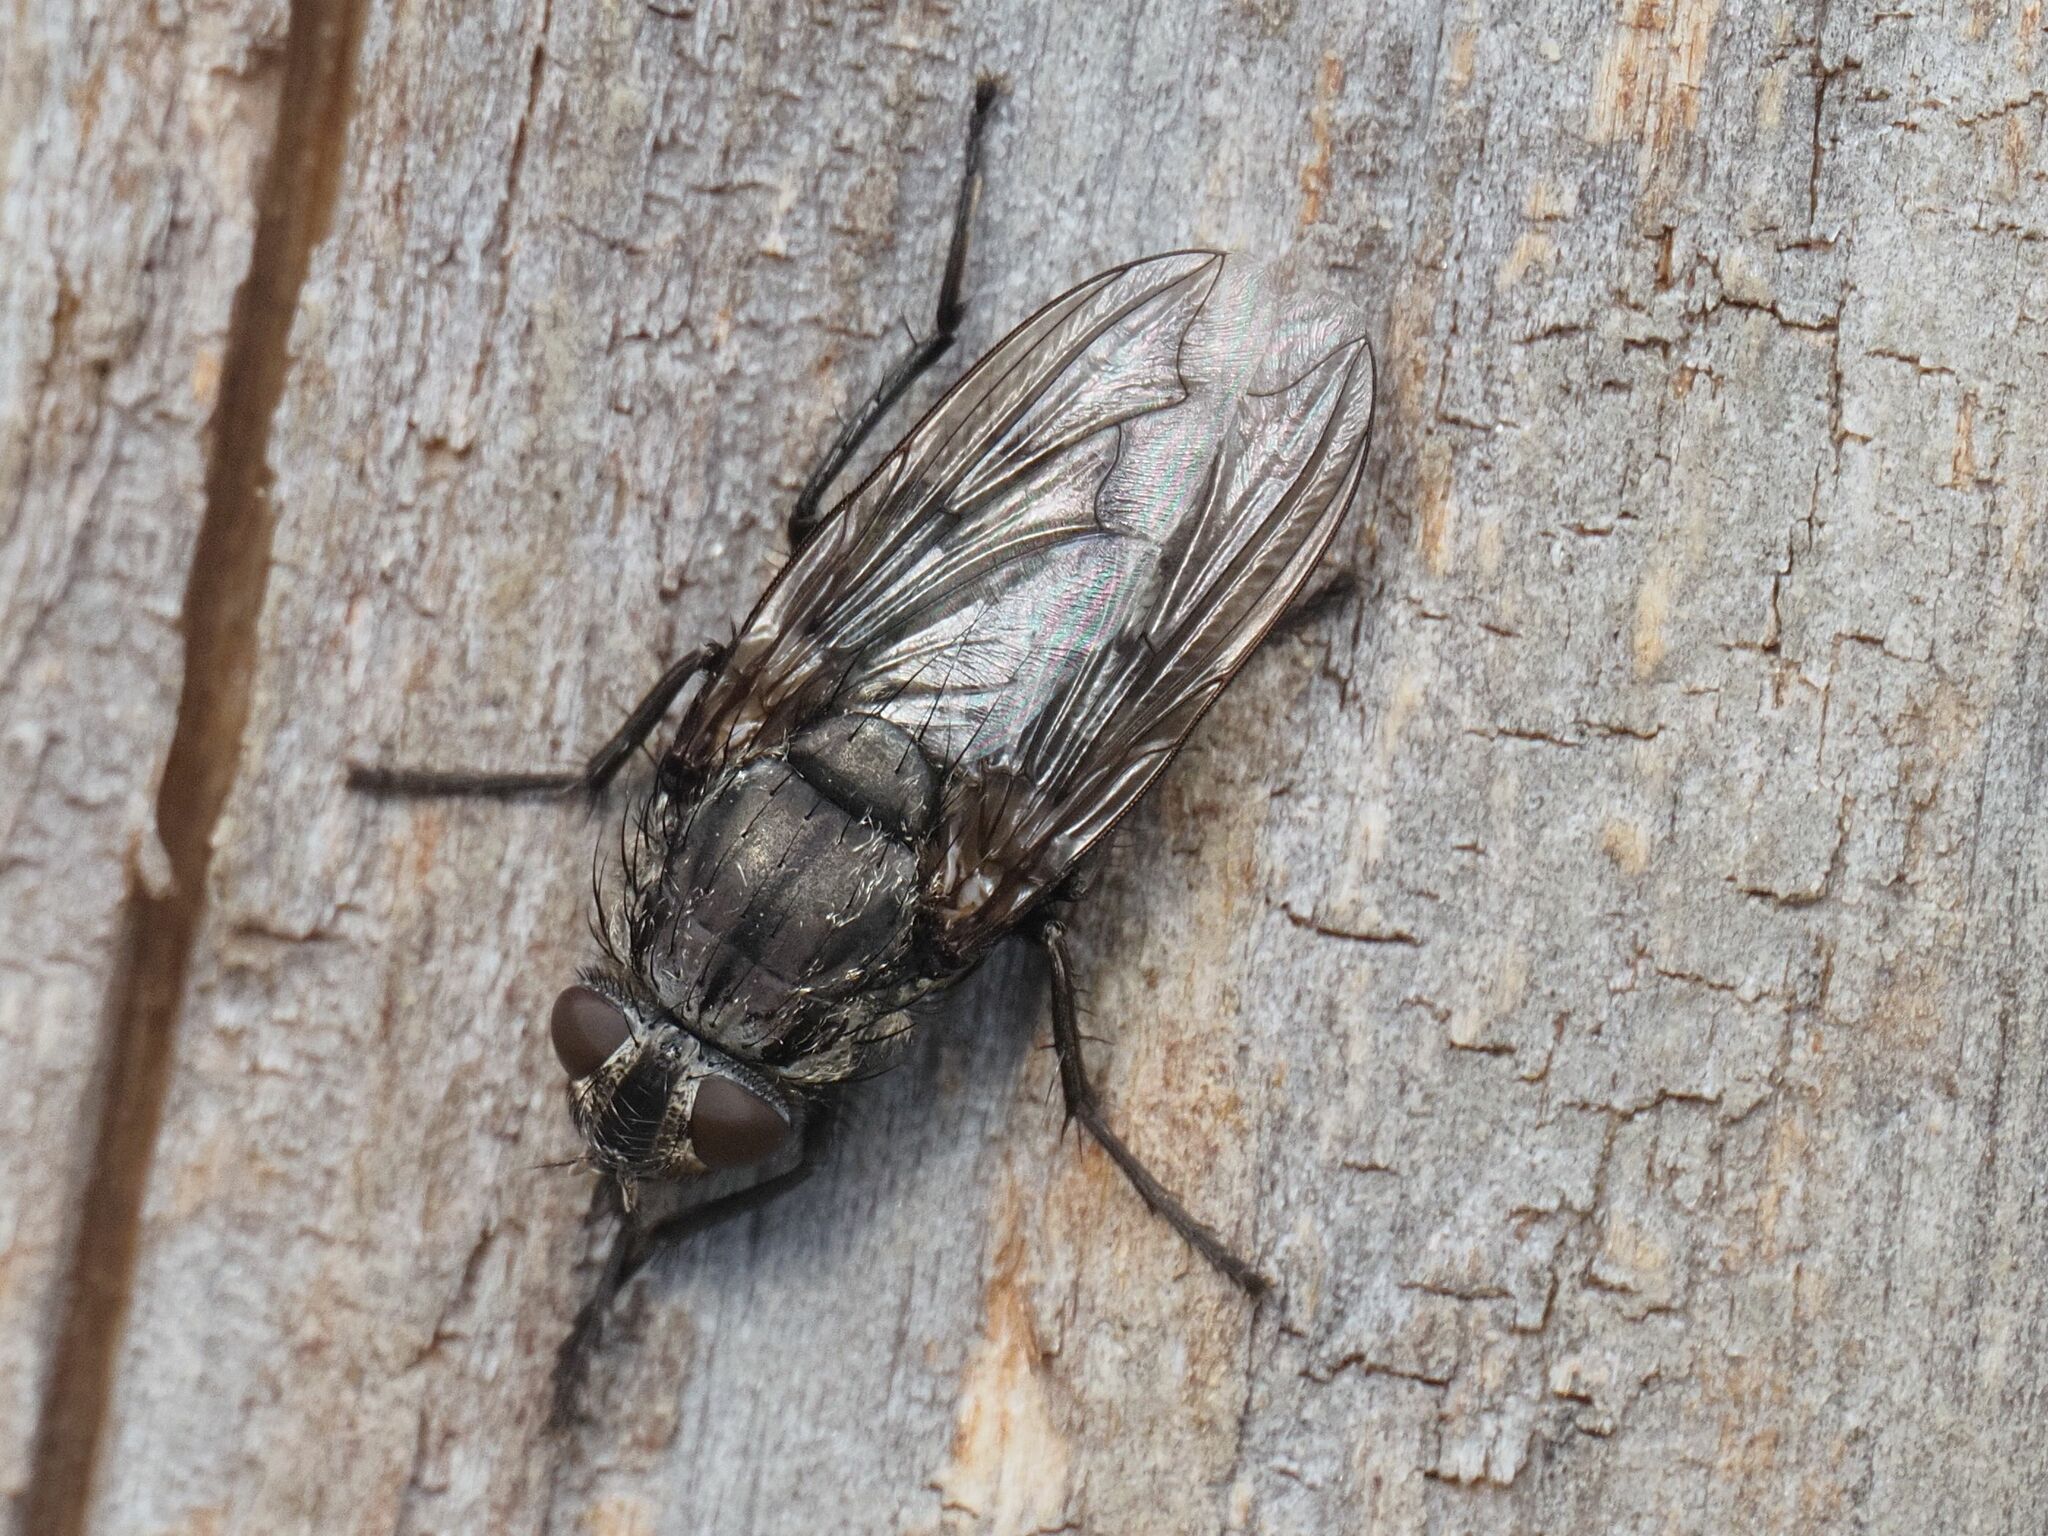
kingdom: Animalia
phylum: Arthropoda
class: Insecta
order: Diptera
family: Polleniidae
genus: Pollenia
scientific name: Pollenia vagabunda
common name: Vagabund cluster fly
